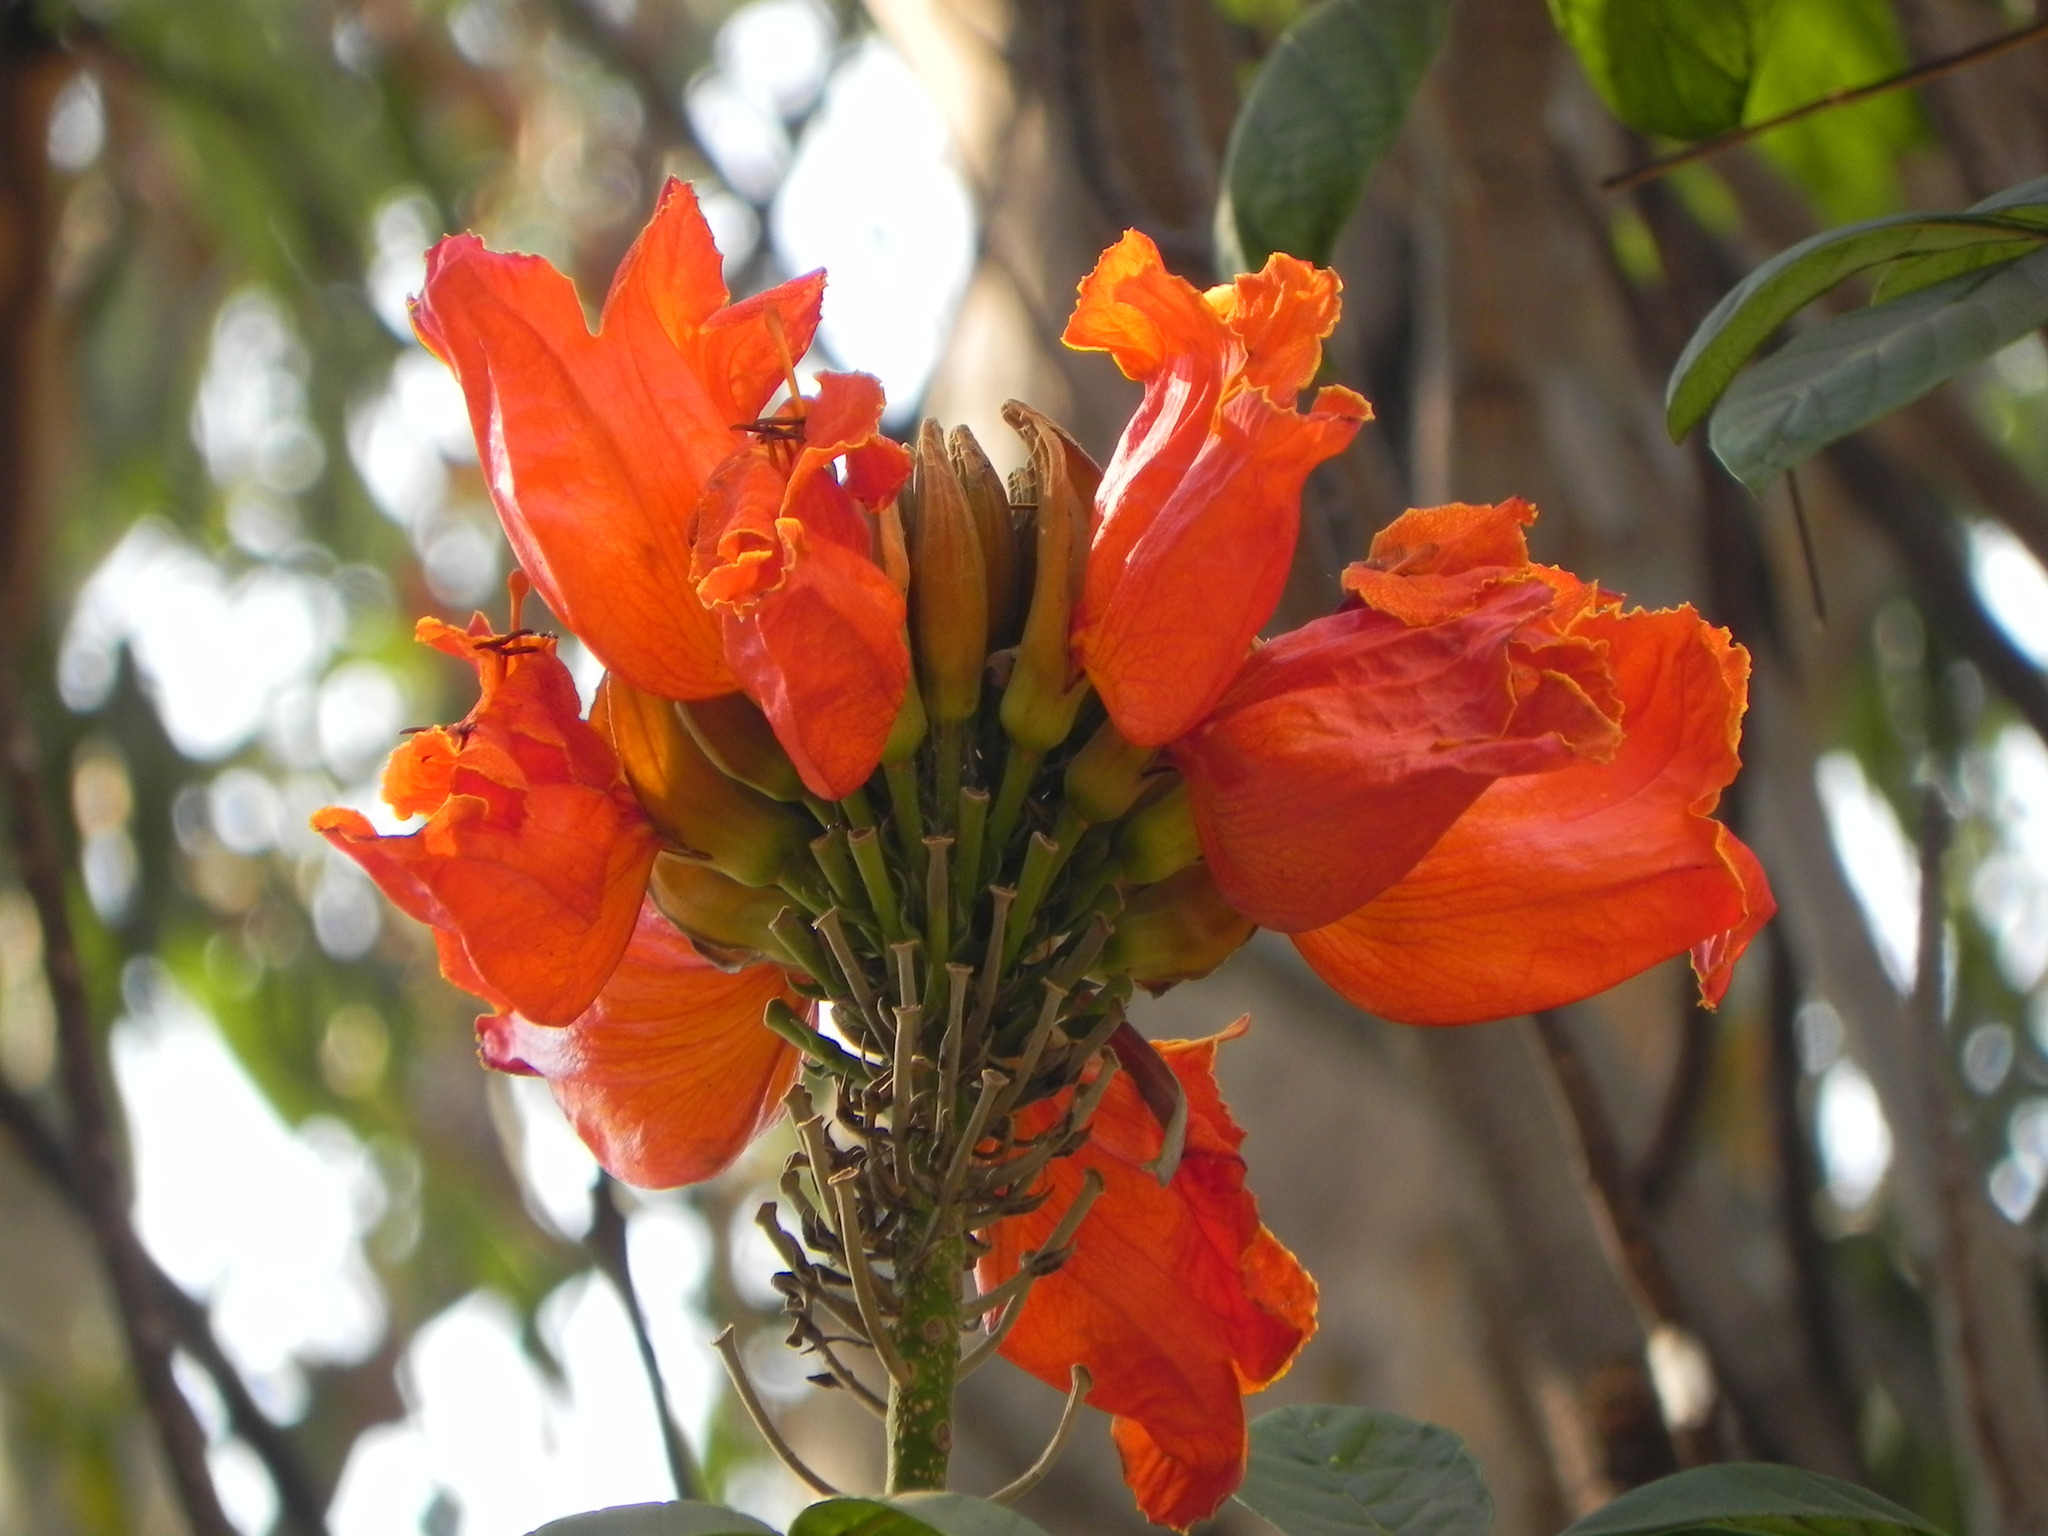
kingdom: Plantae
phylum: Tracheophyta
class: Magnoliopsida
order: Lamiales
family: Bignoniaceae
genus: Spathodea
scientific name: Spathodea campanulata
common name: African tuliptree
